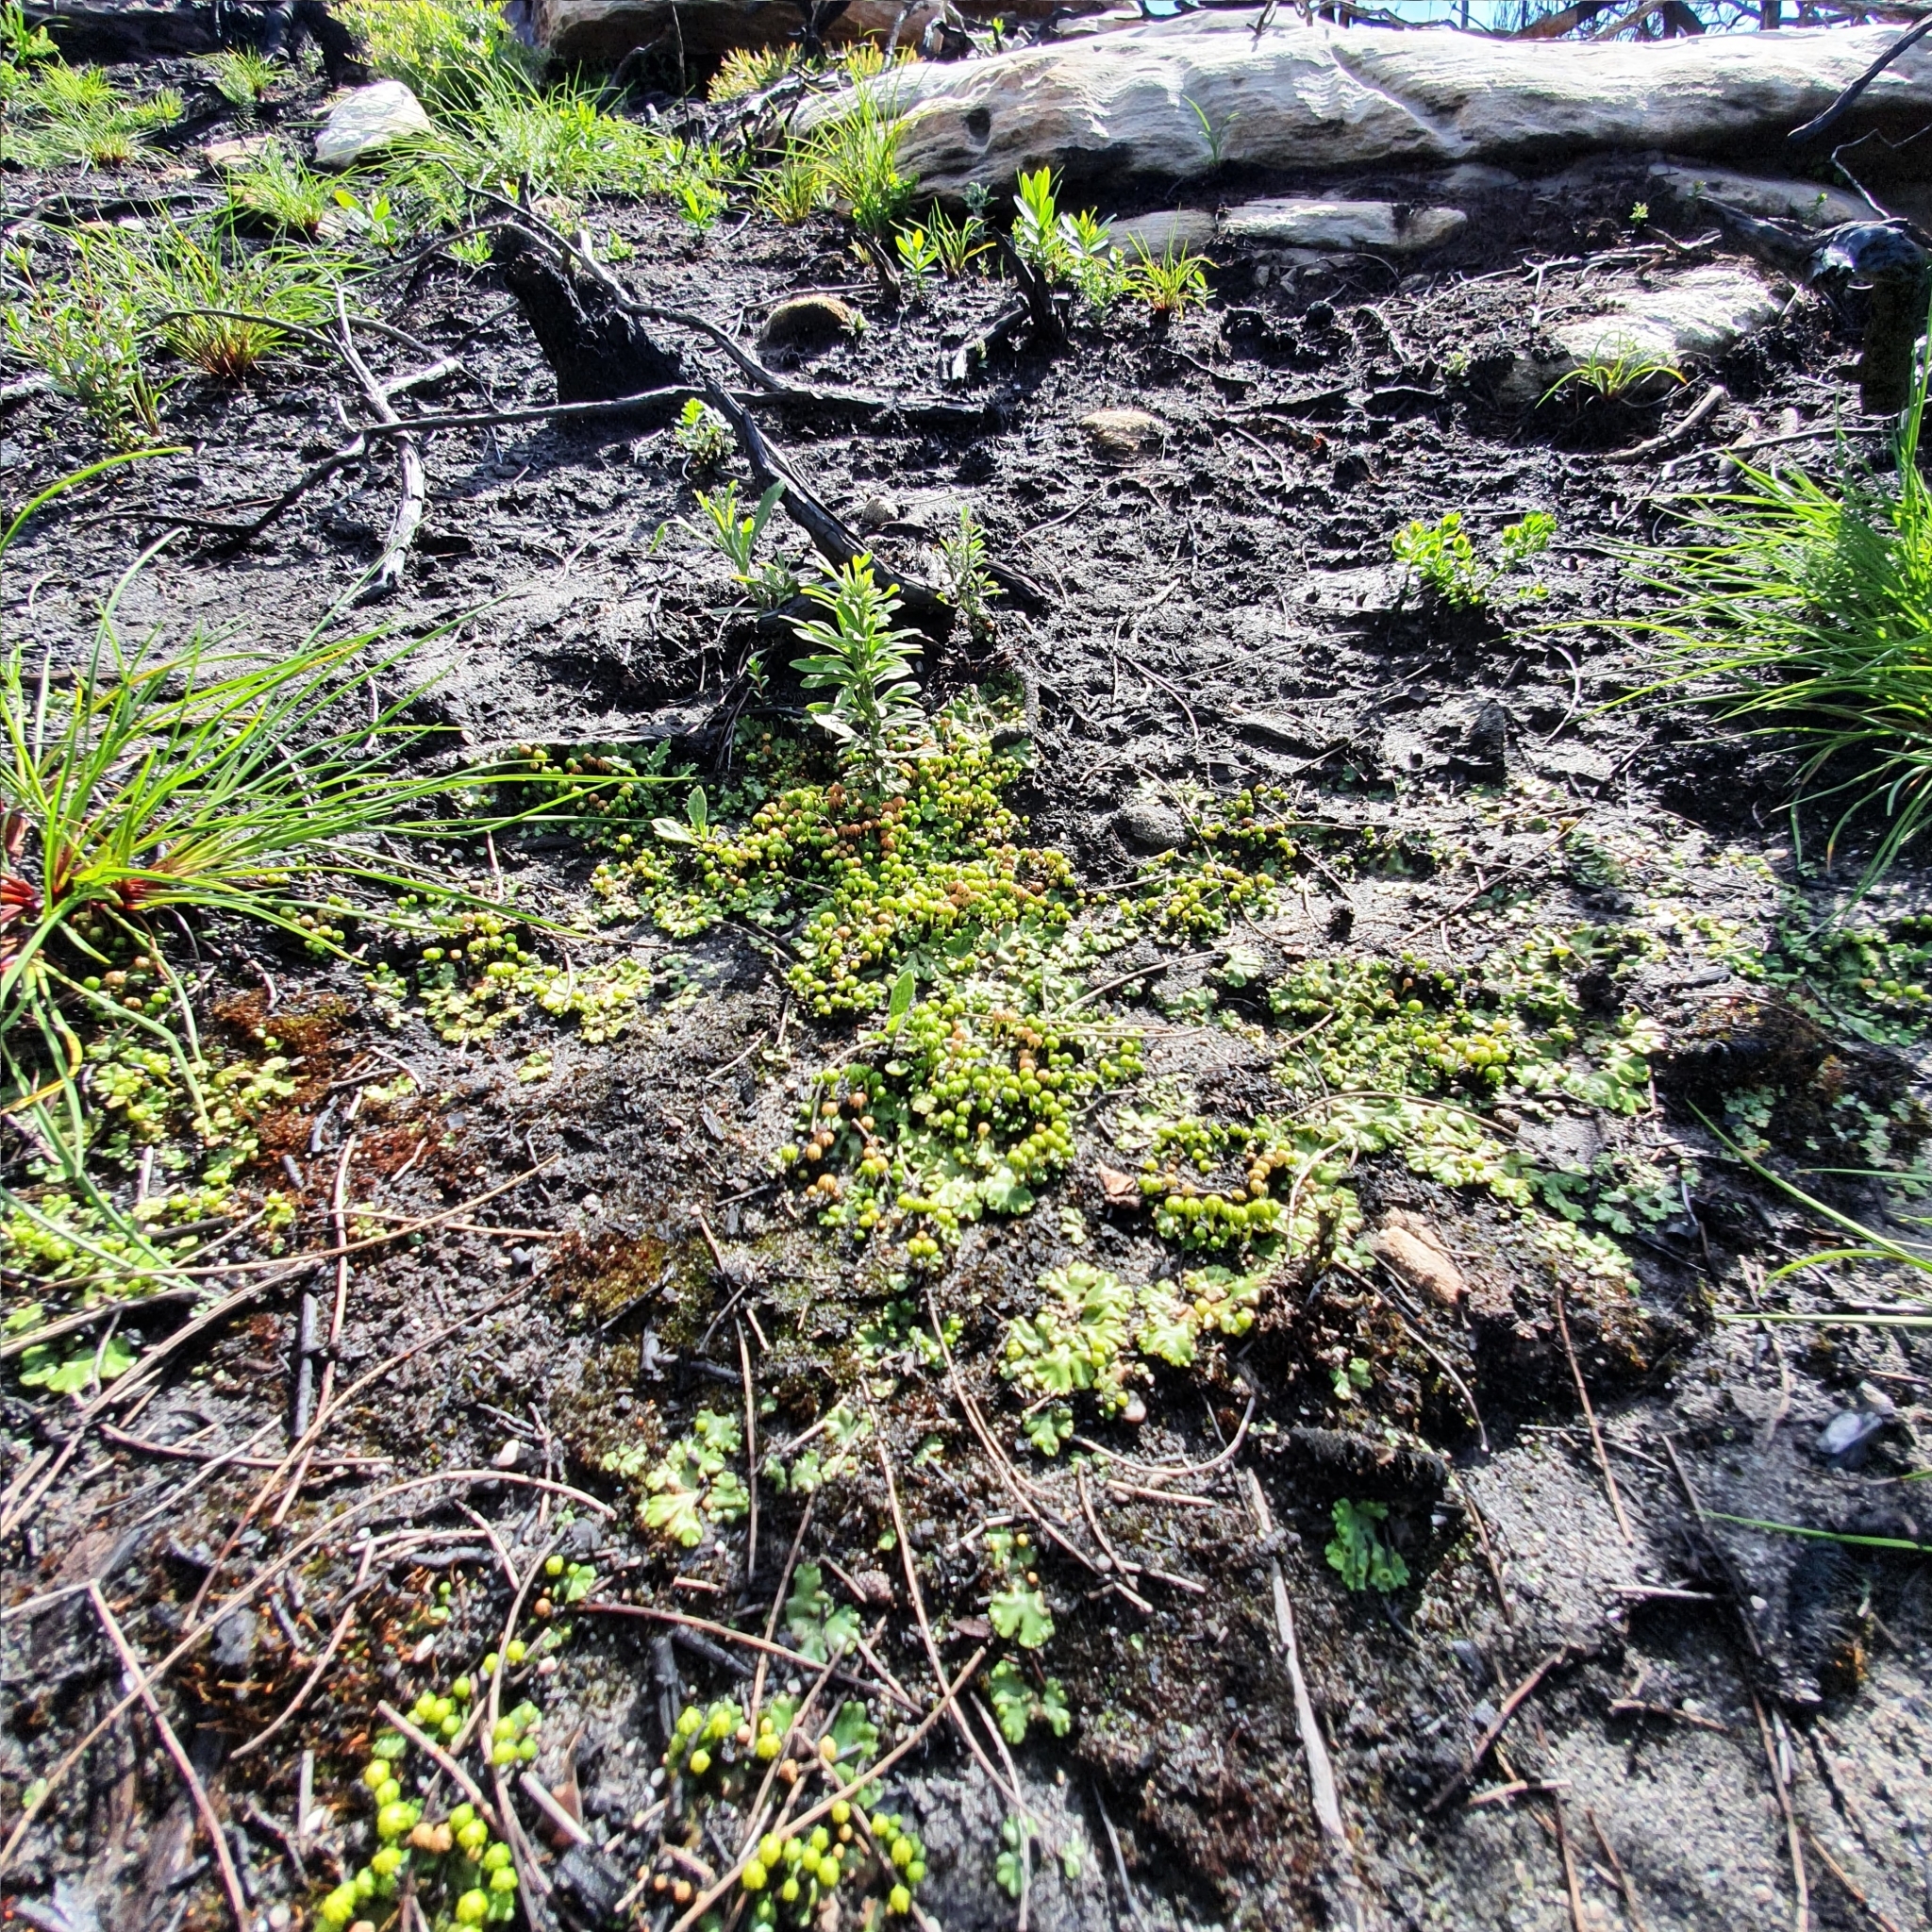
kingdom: Plantae
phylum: Marchantiophyta
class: Marchantiopsida
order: Marchantiales
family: Marchantiaceae
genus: Marchantia
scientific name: Marchantia berteroana
